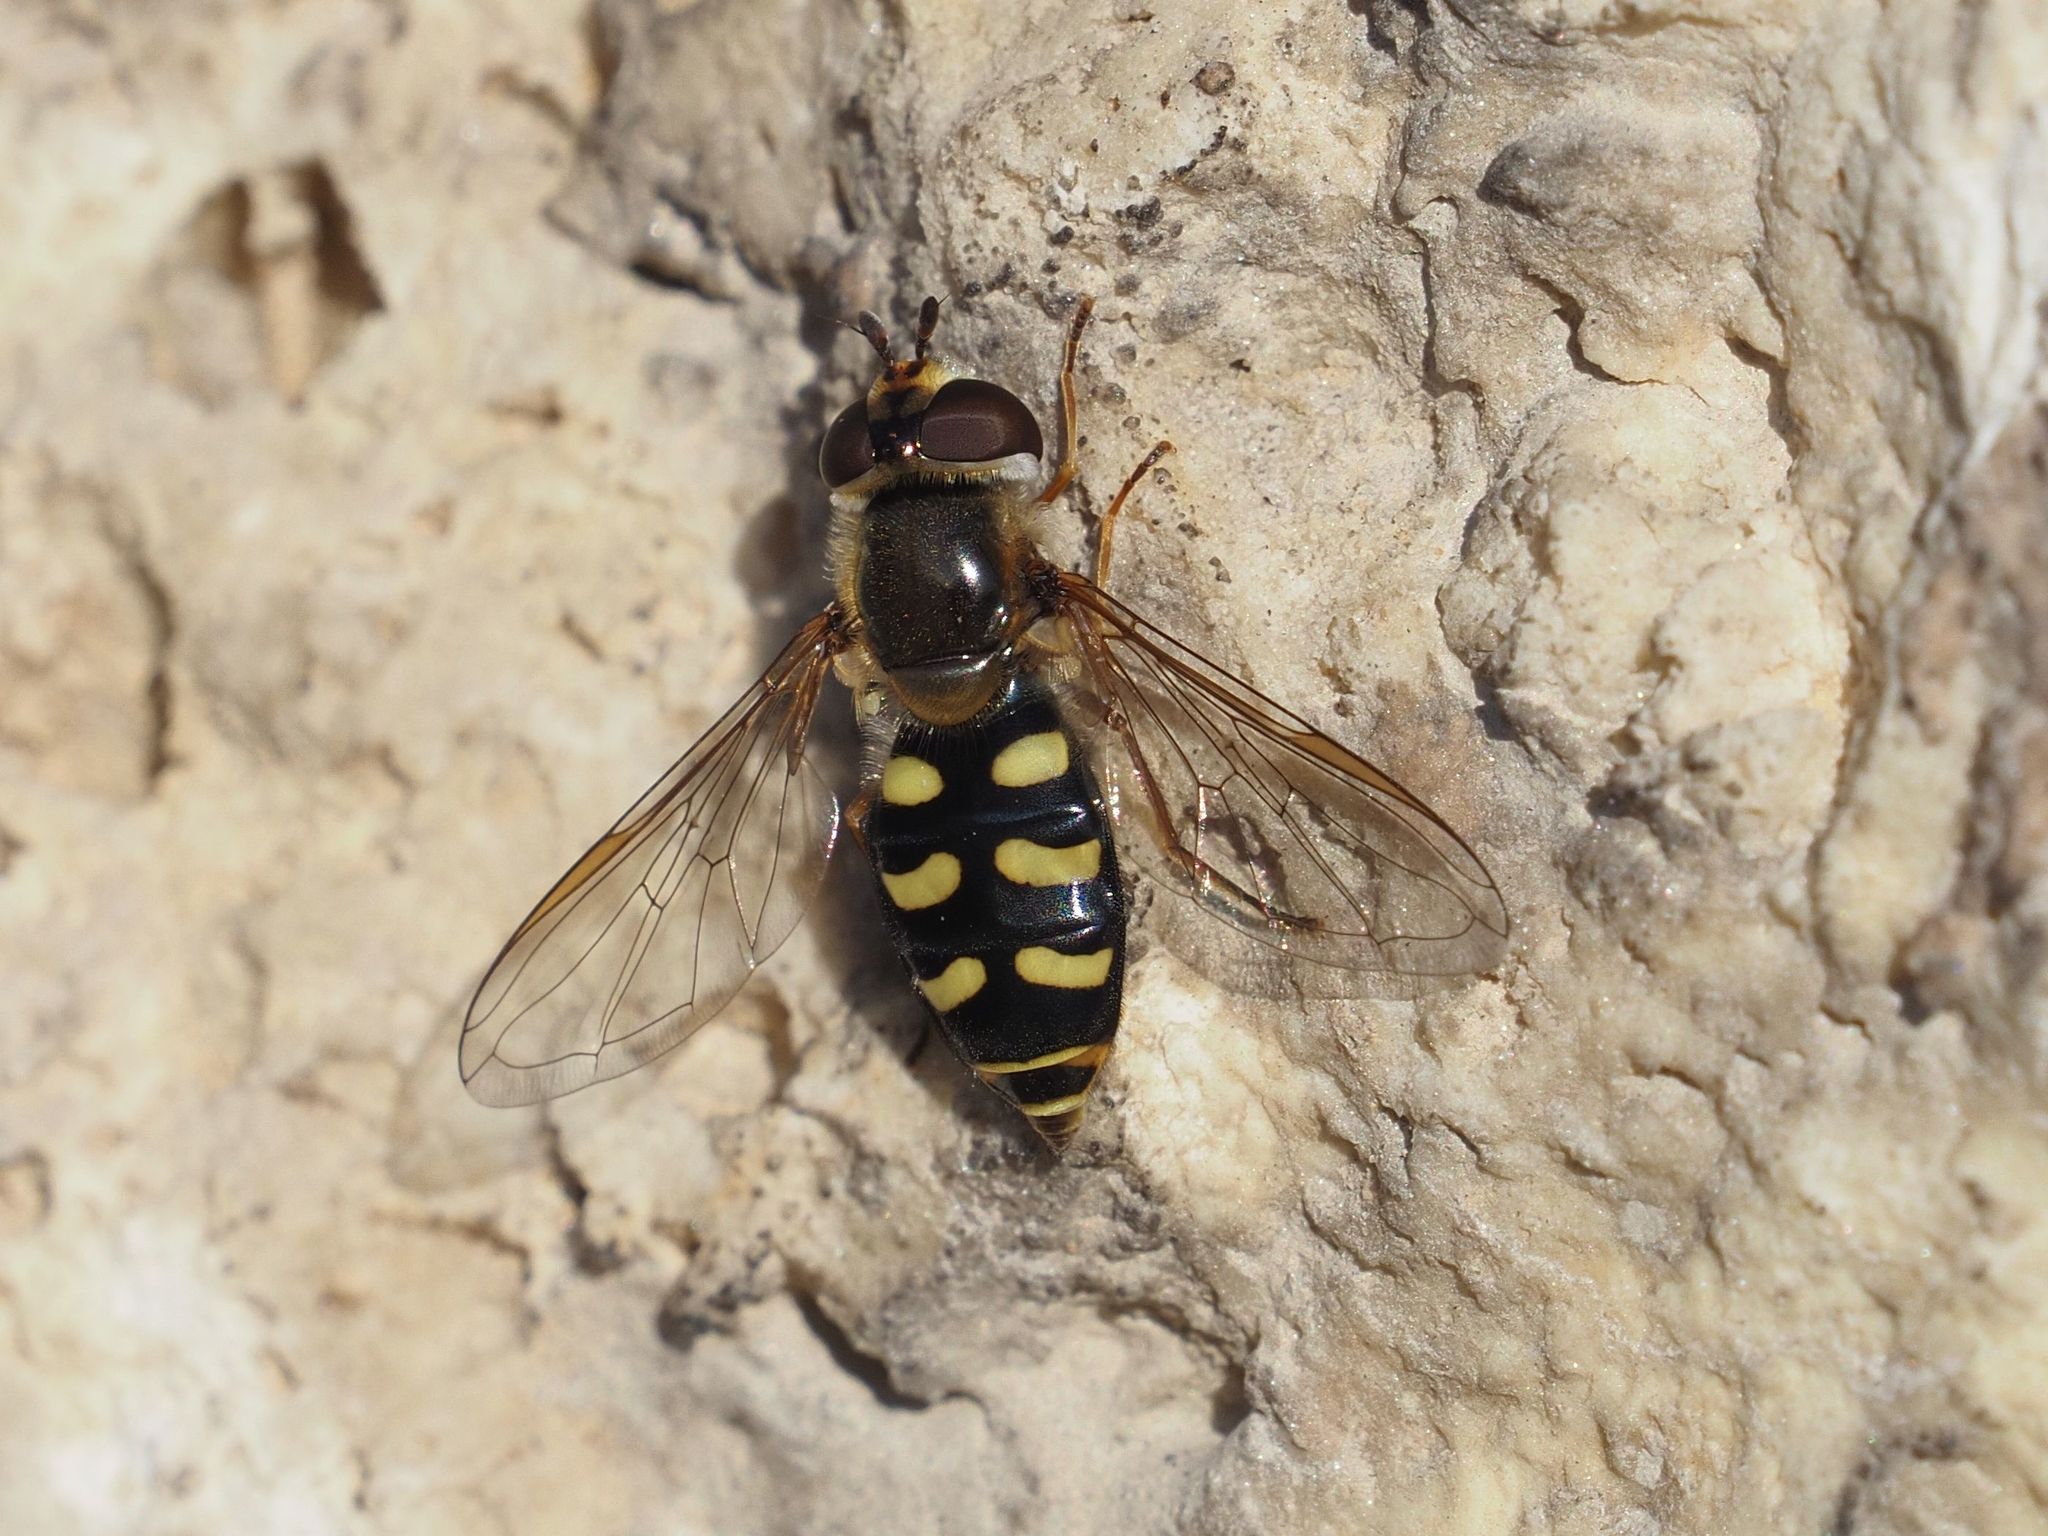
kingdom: Animalia
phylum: Arthropoda
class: Insecta
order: Diptera
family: Syrphidae
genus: Eupeodes
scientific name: Eupeodes luniger
